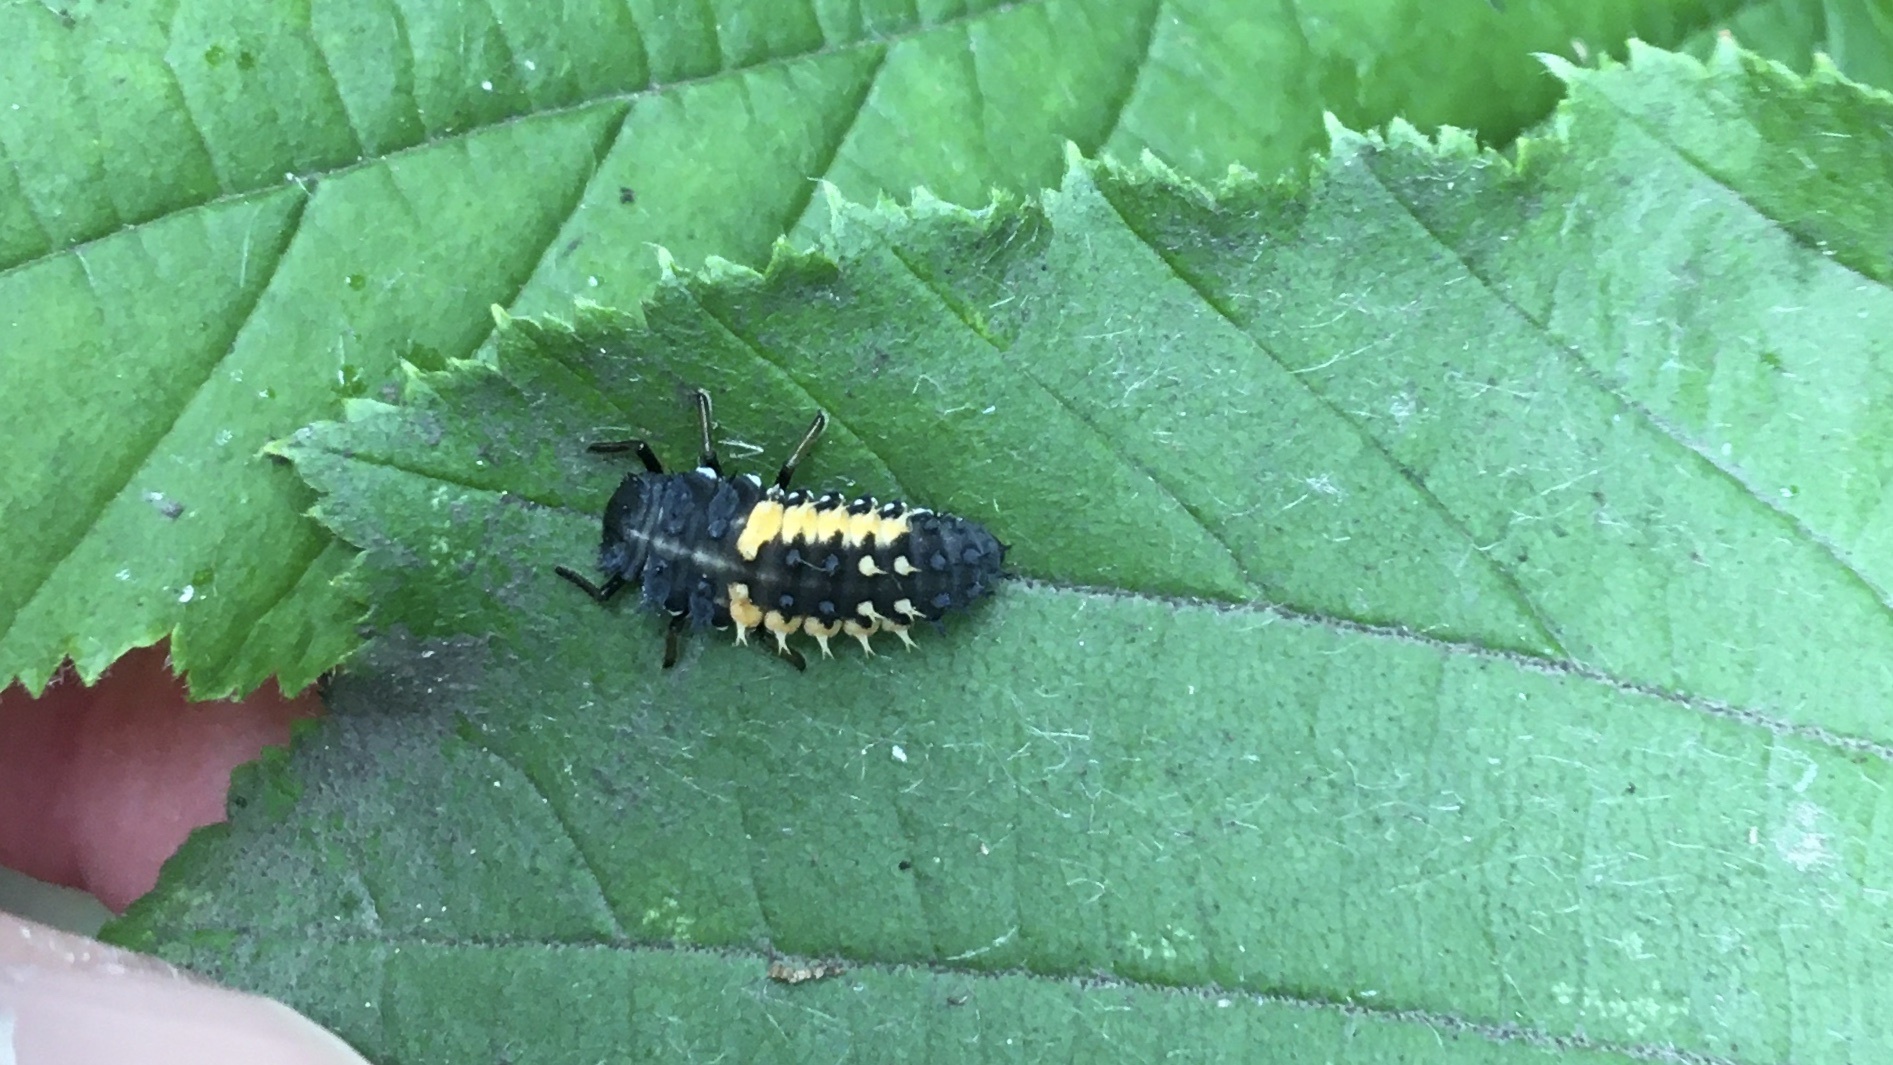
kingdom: Animalia
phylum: Arthropoda
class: Insecta
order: Coleoptera
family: Coccinellidae
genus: Harmonia
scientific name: Harmonia axyridis
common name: Harlequin ladybird
